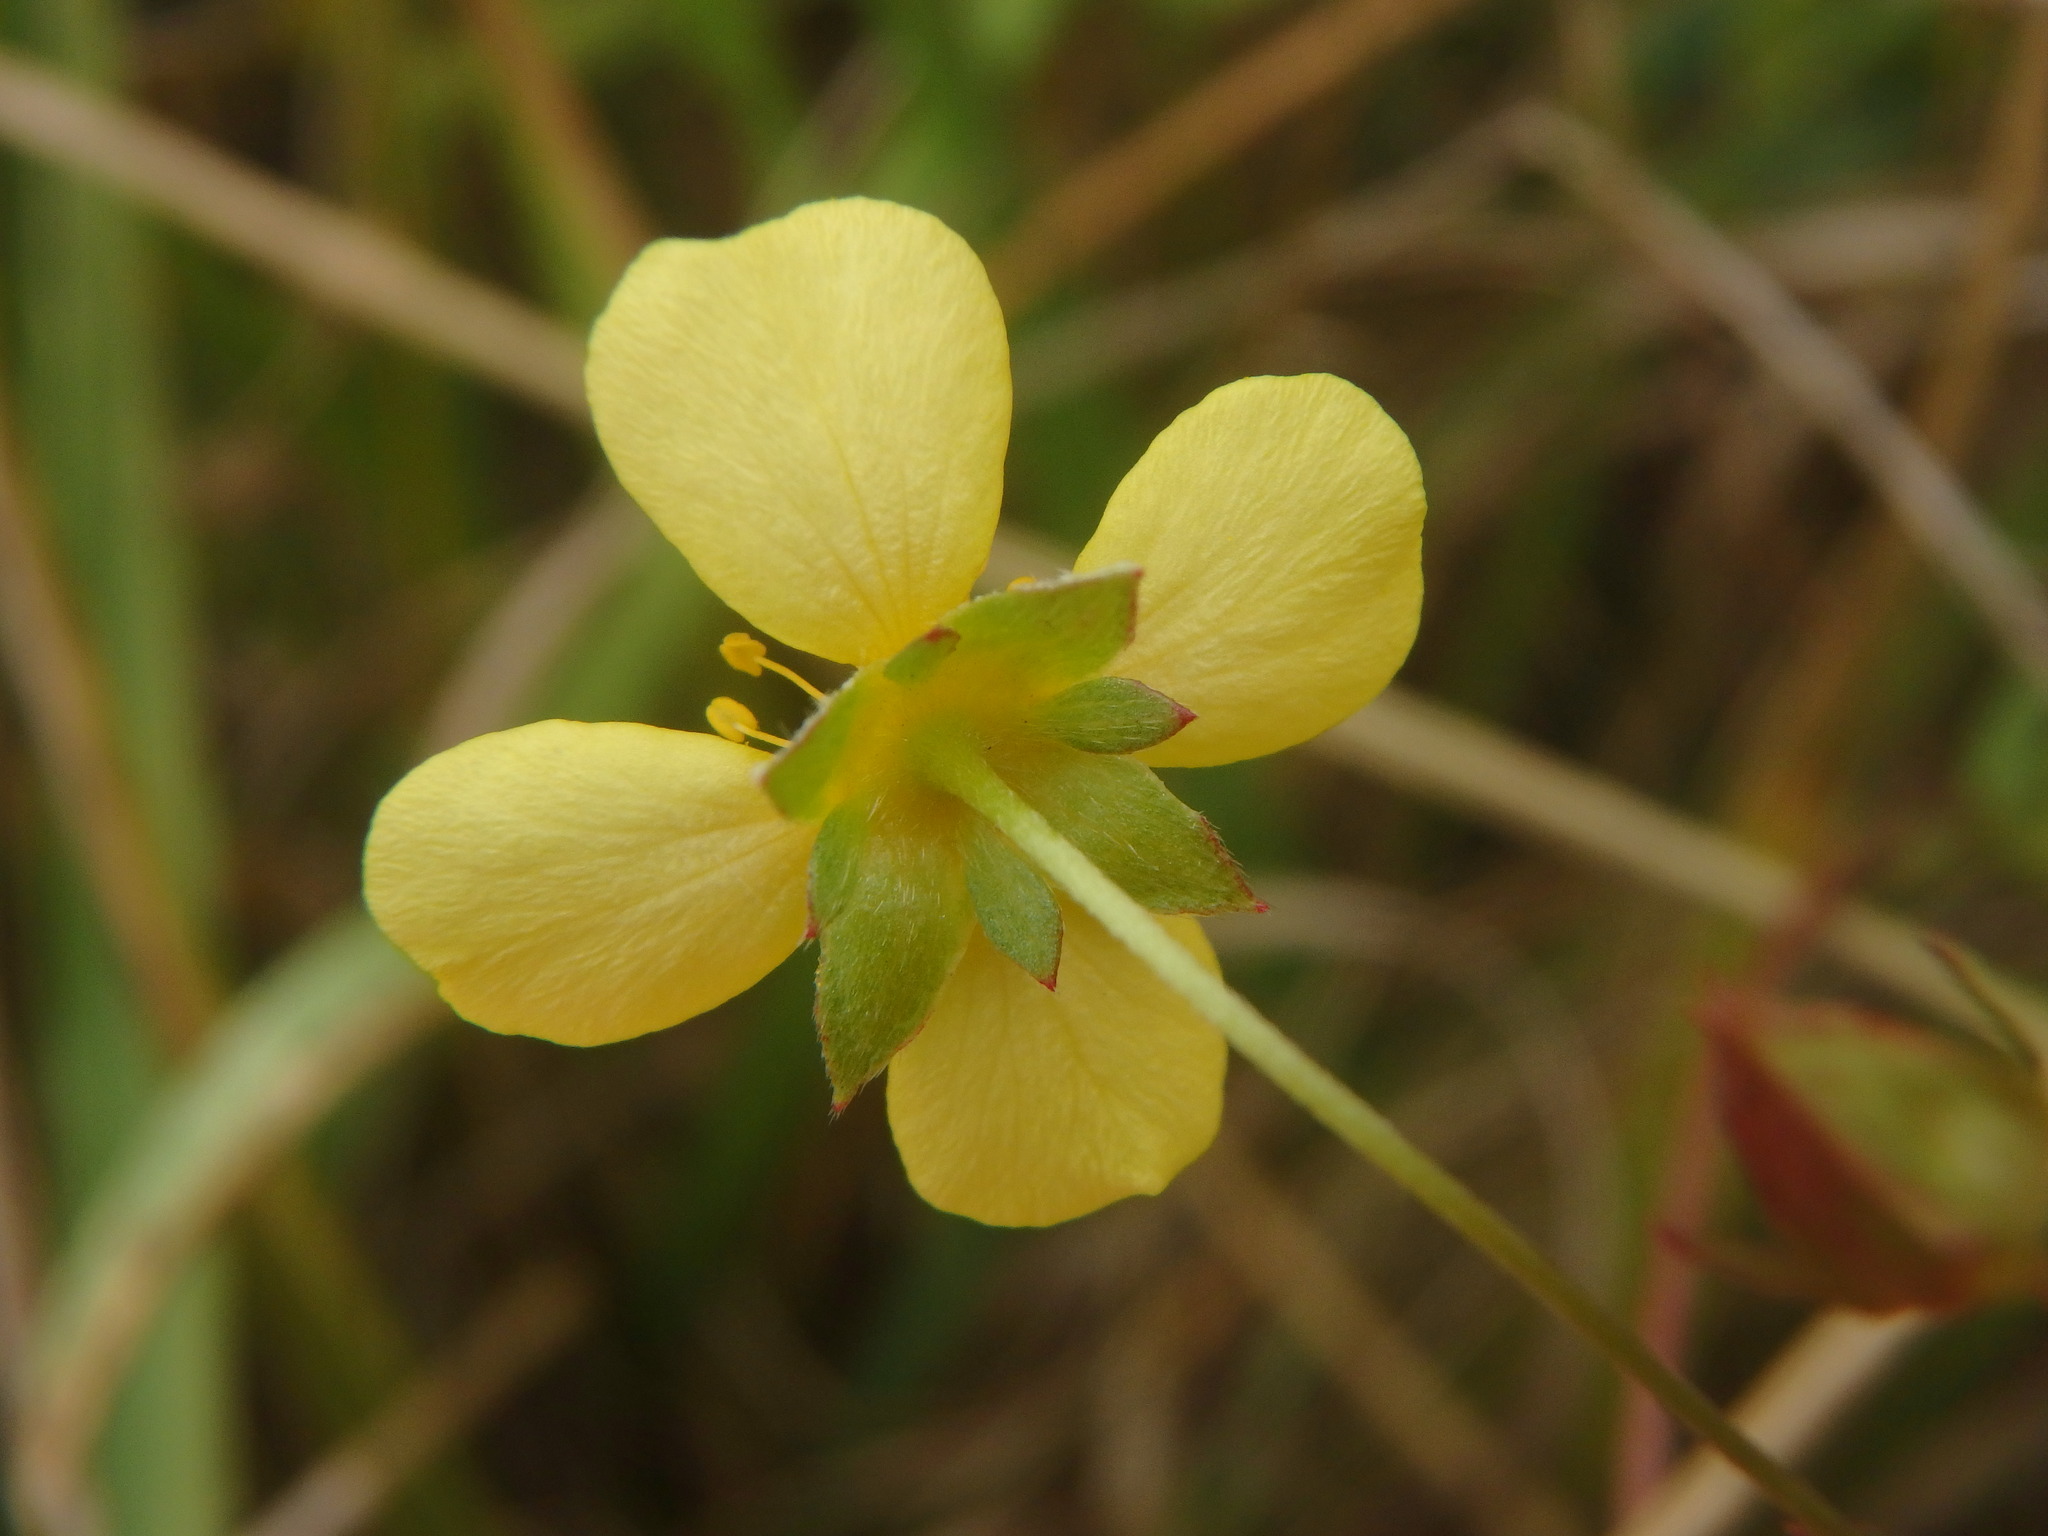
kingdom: Plantae
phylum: Tracheophyta
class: Magnoliopsida
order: Rosales
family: Rosaceae
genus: Potentilla
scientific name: Potentilla erecta
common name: Tormentil
